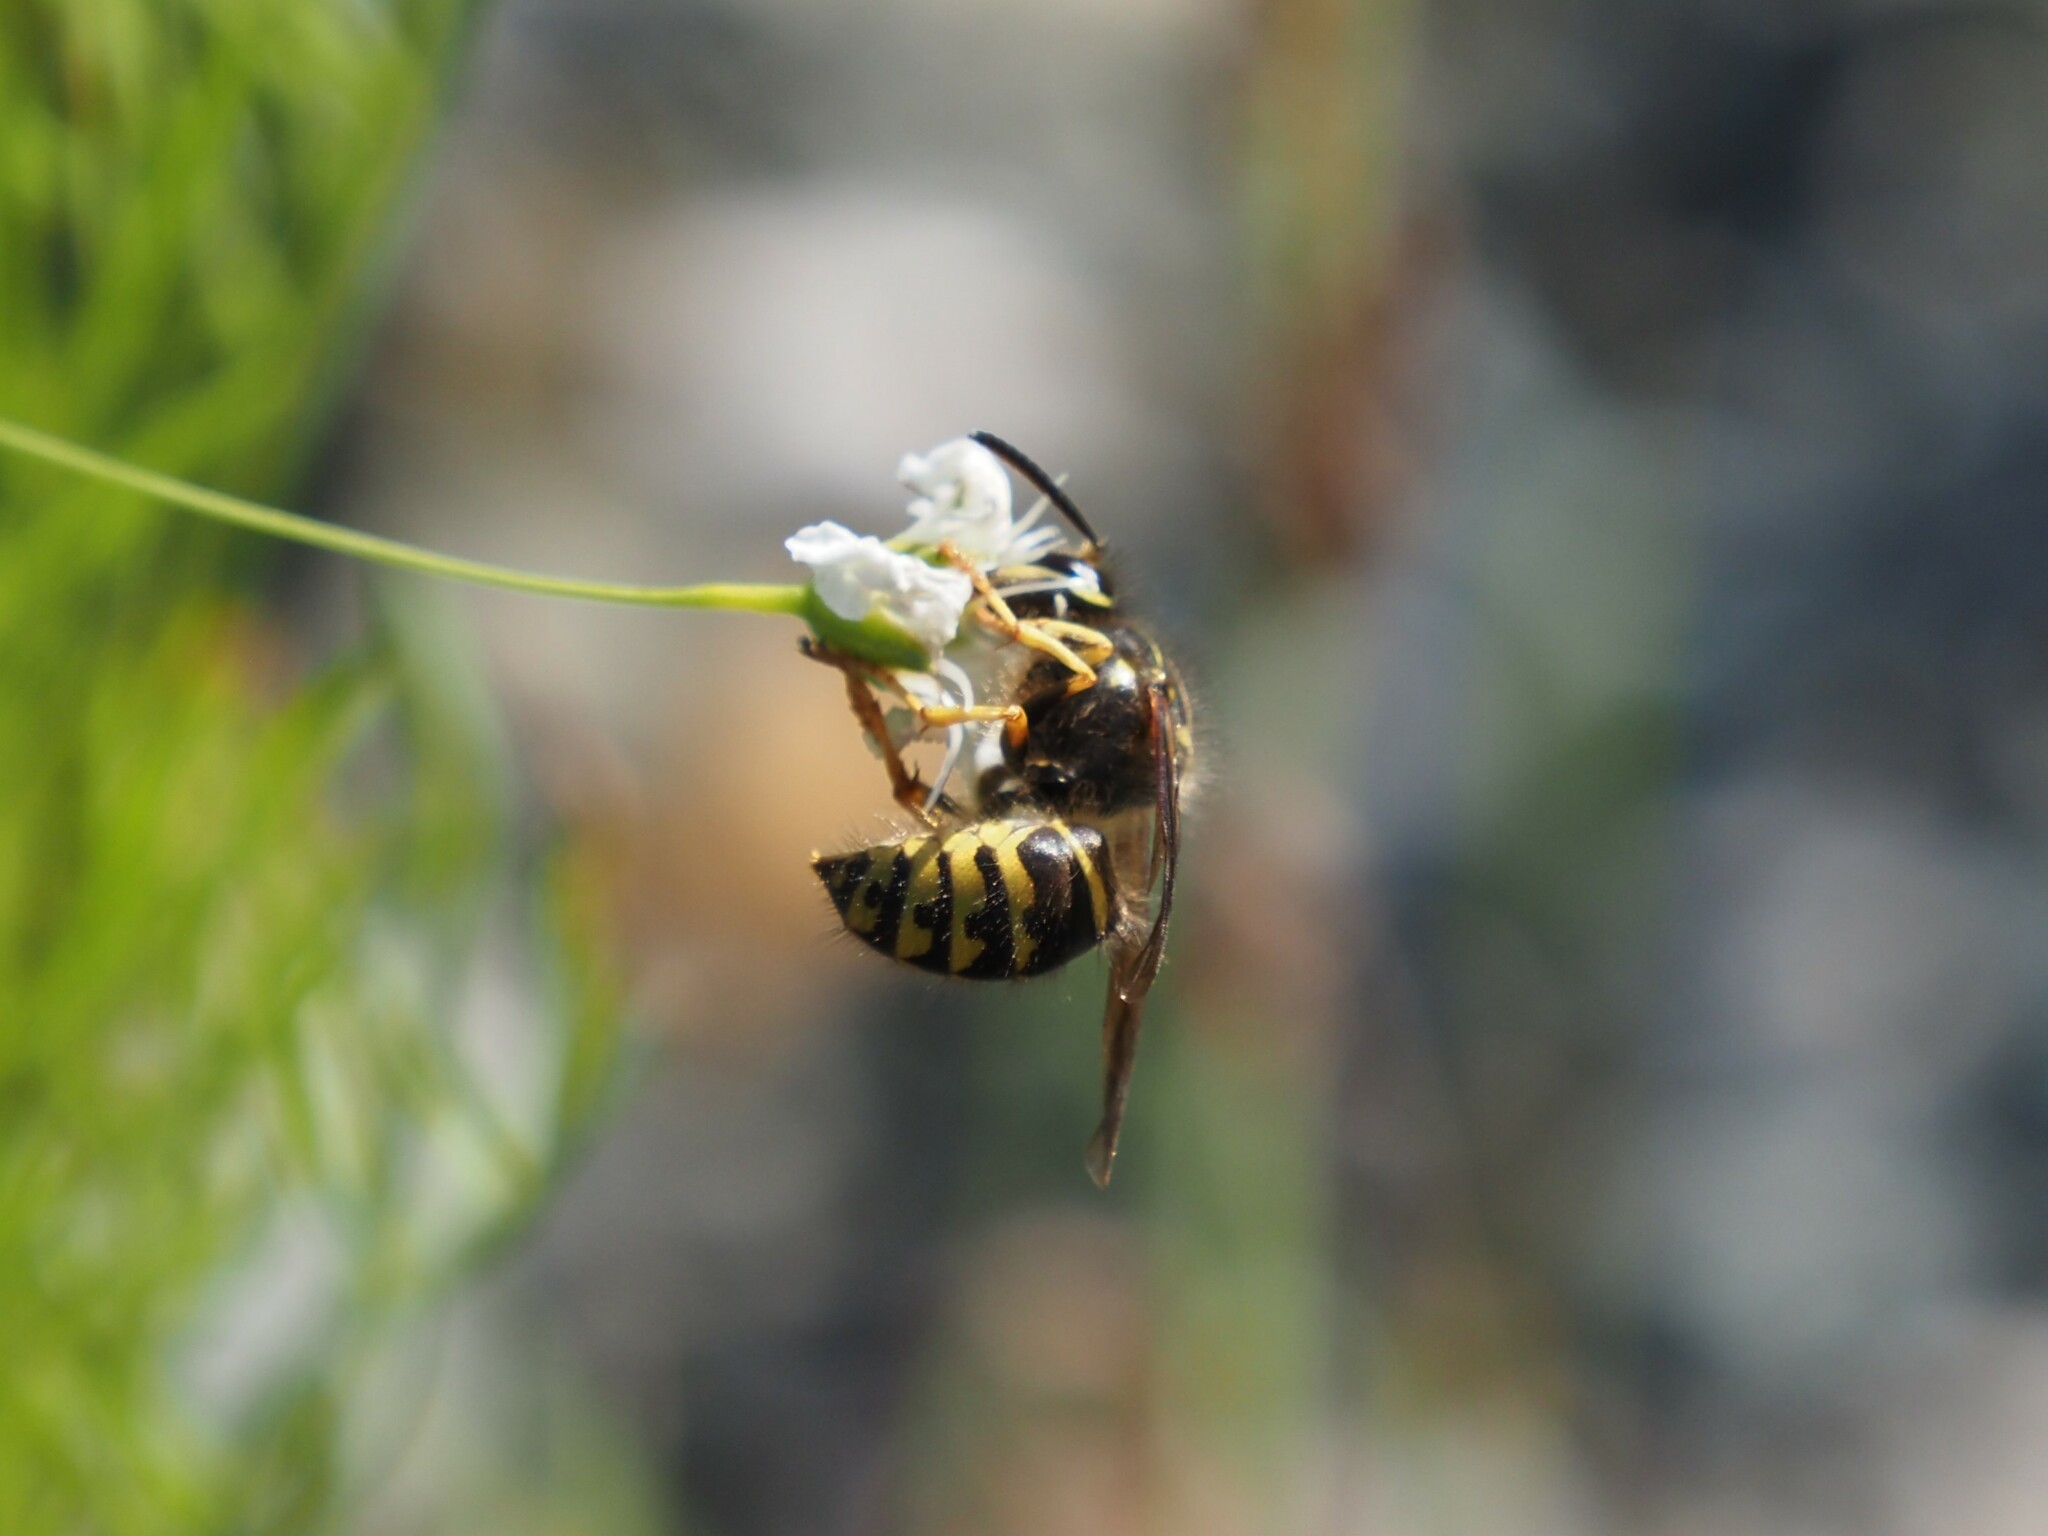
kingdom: Animalia
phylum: Arthropoda
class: Insecta
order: Hymenoptera
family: Vespidae
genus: Dolichovespula
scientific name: Dolichovespula arenaria
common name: Aerial yellowjacket
